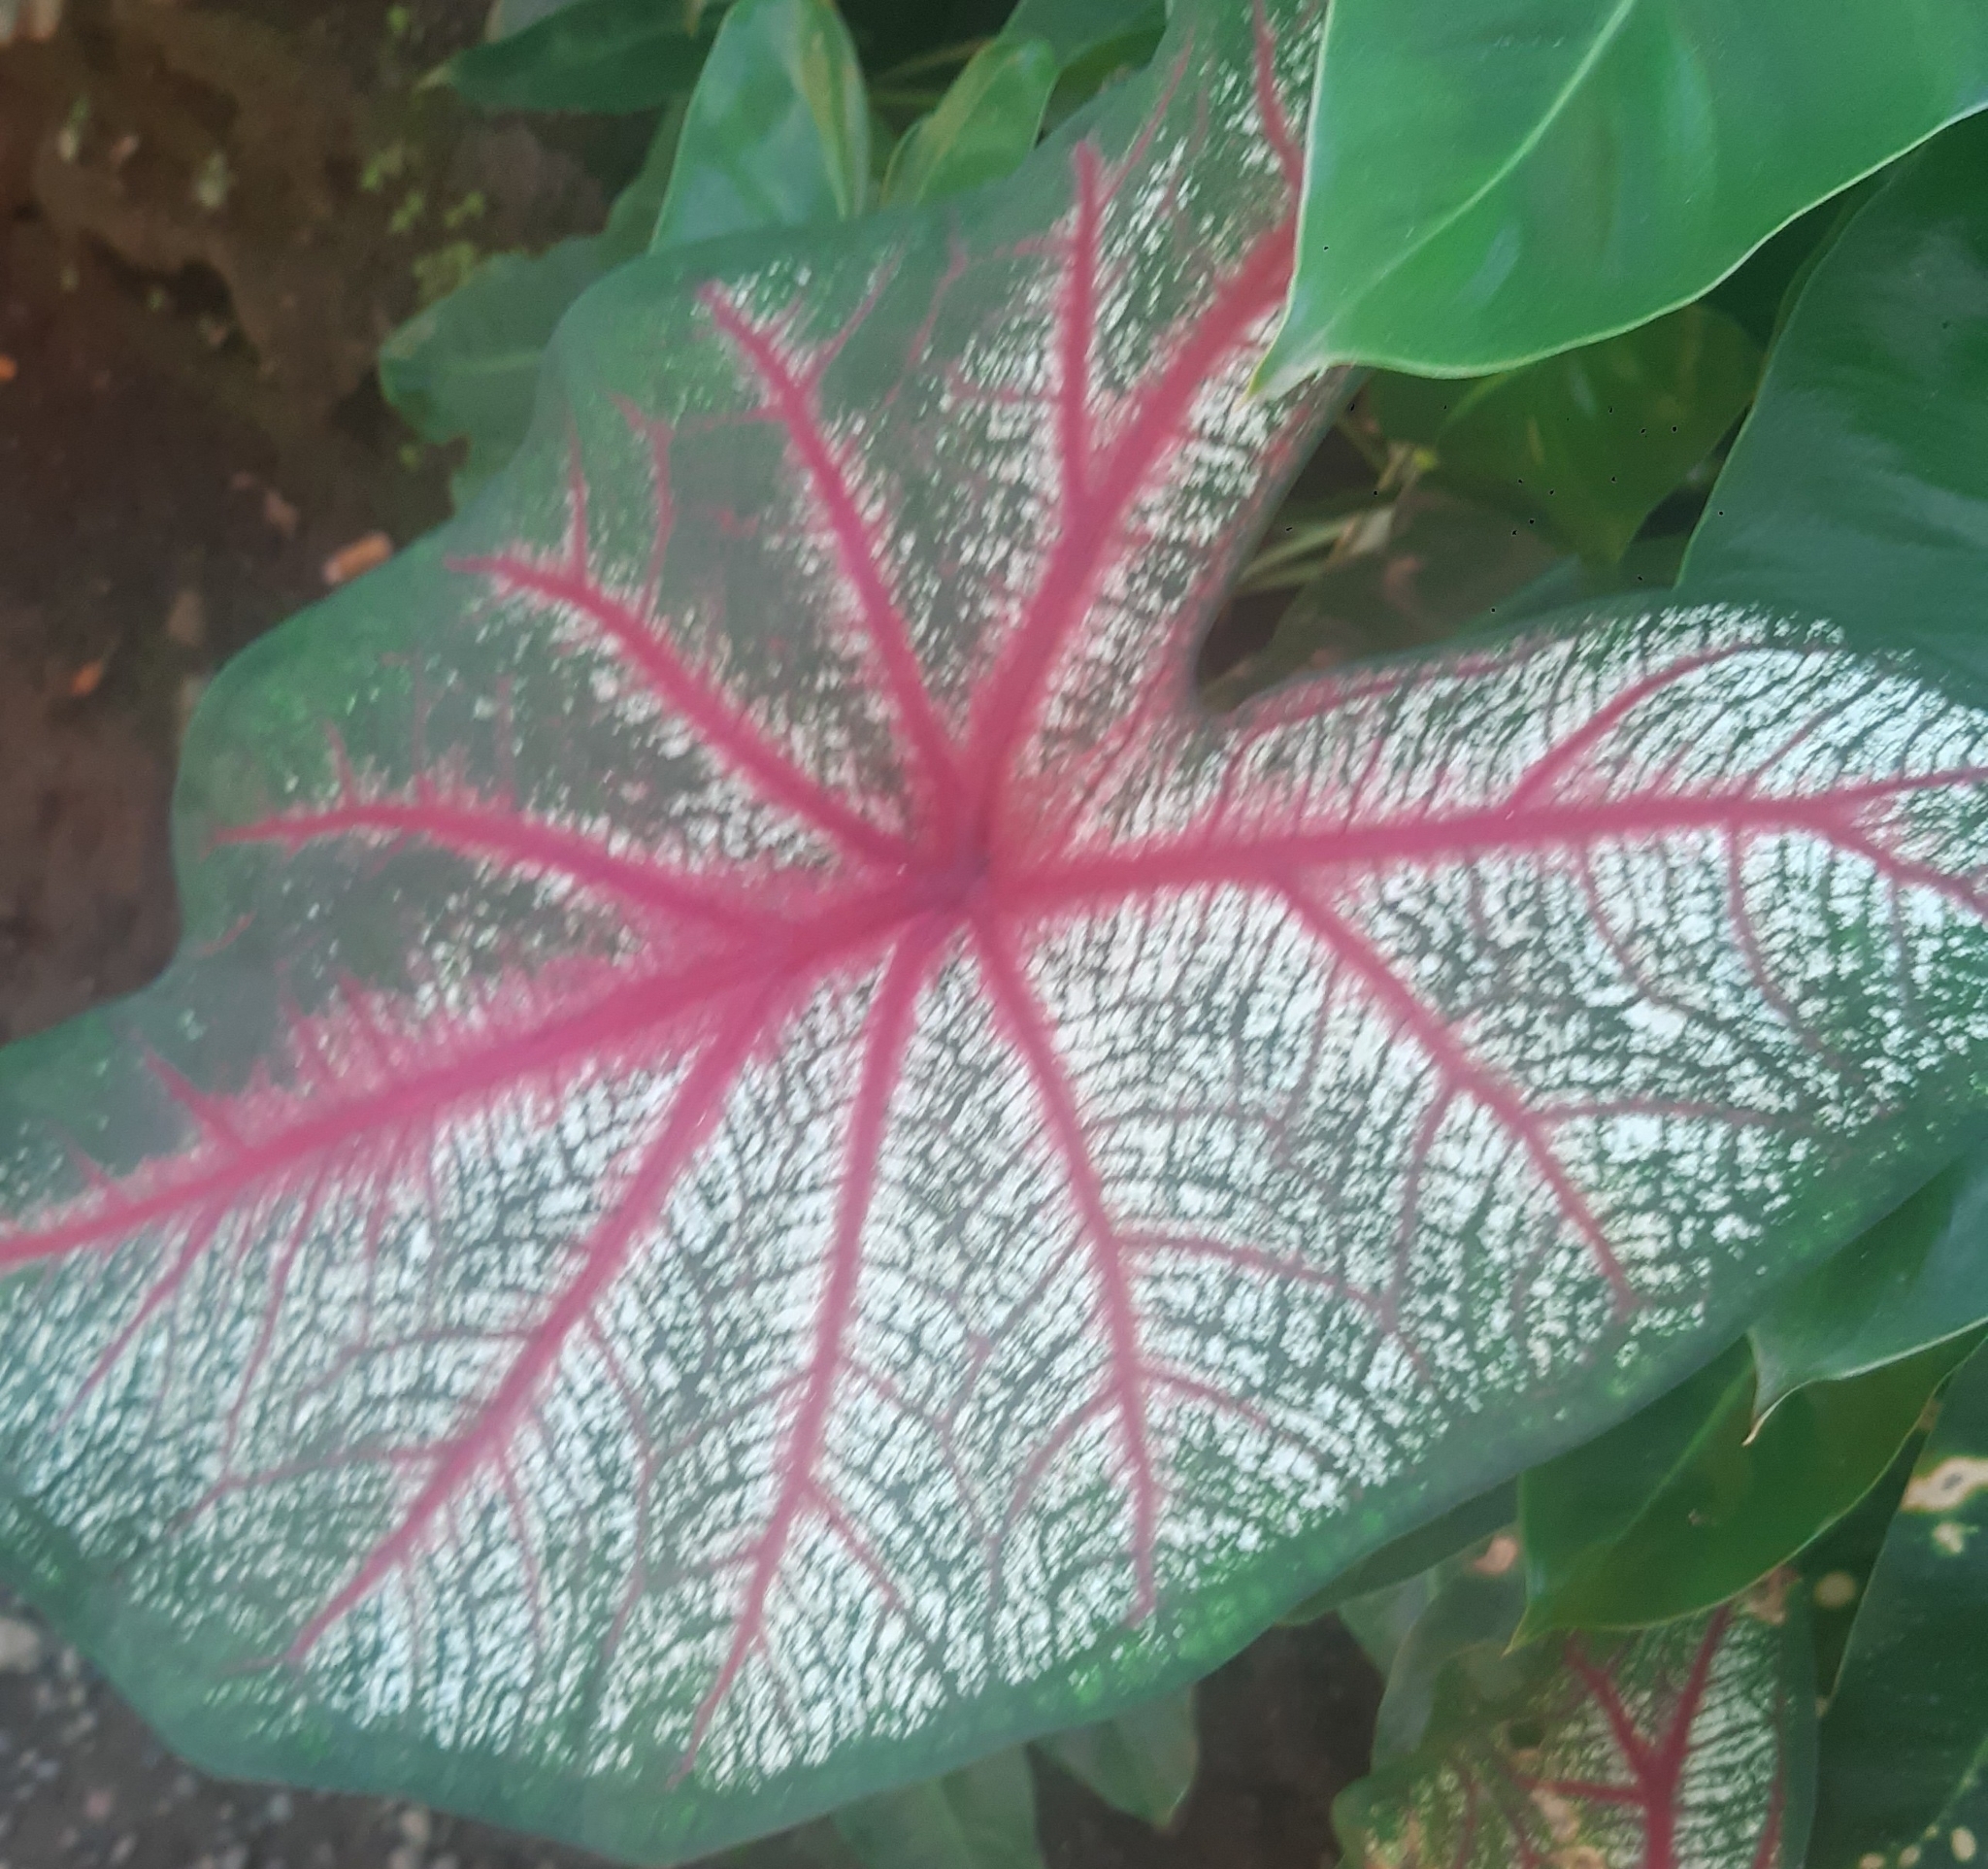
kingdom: Plantae
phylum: Tracheophyta
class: Liliopsida
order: Alismatales
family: Araceae
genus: Caladium
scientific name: Caladium bicolor
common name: Artist's pallet
